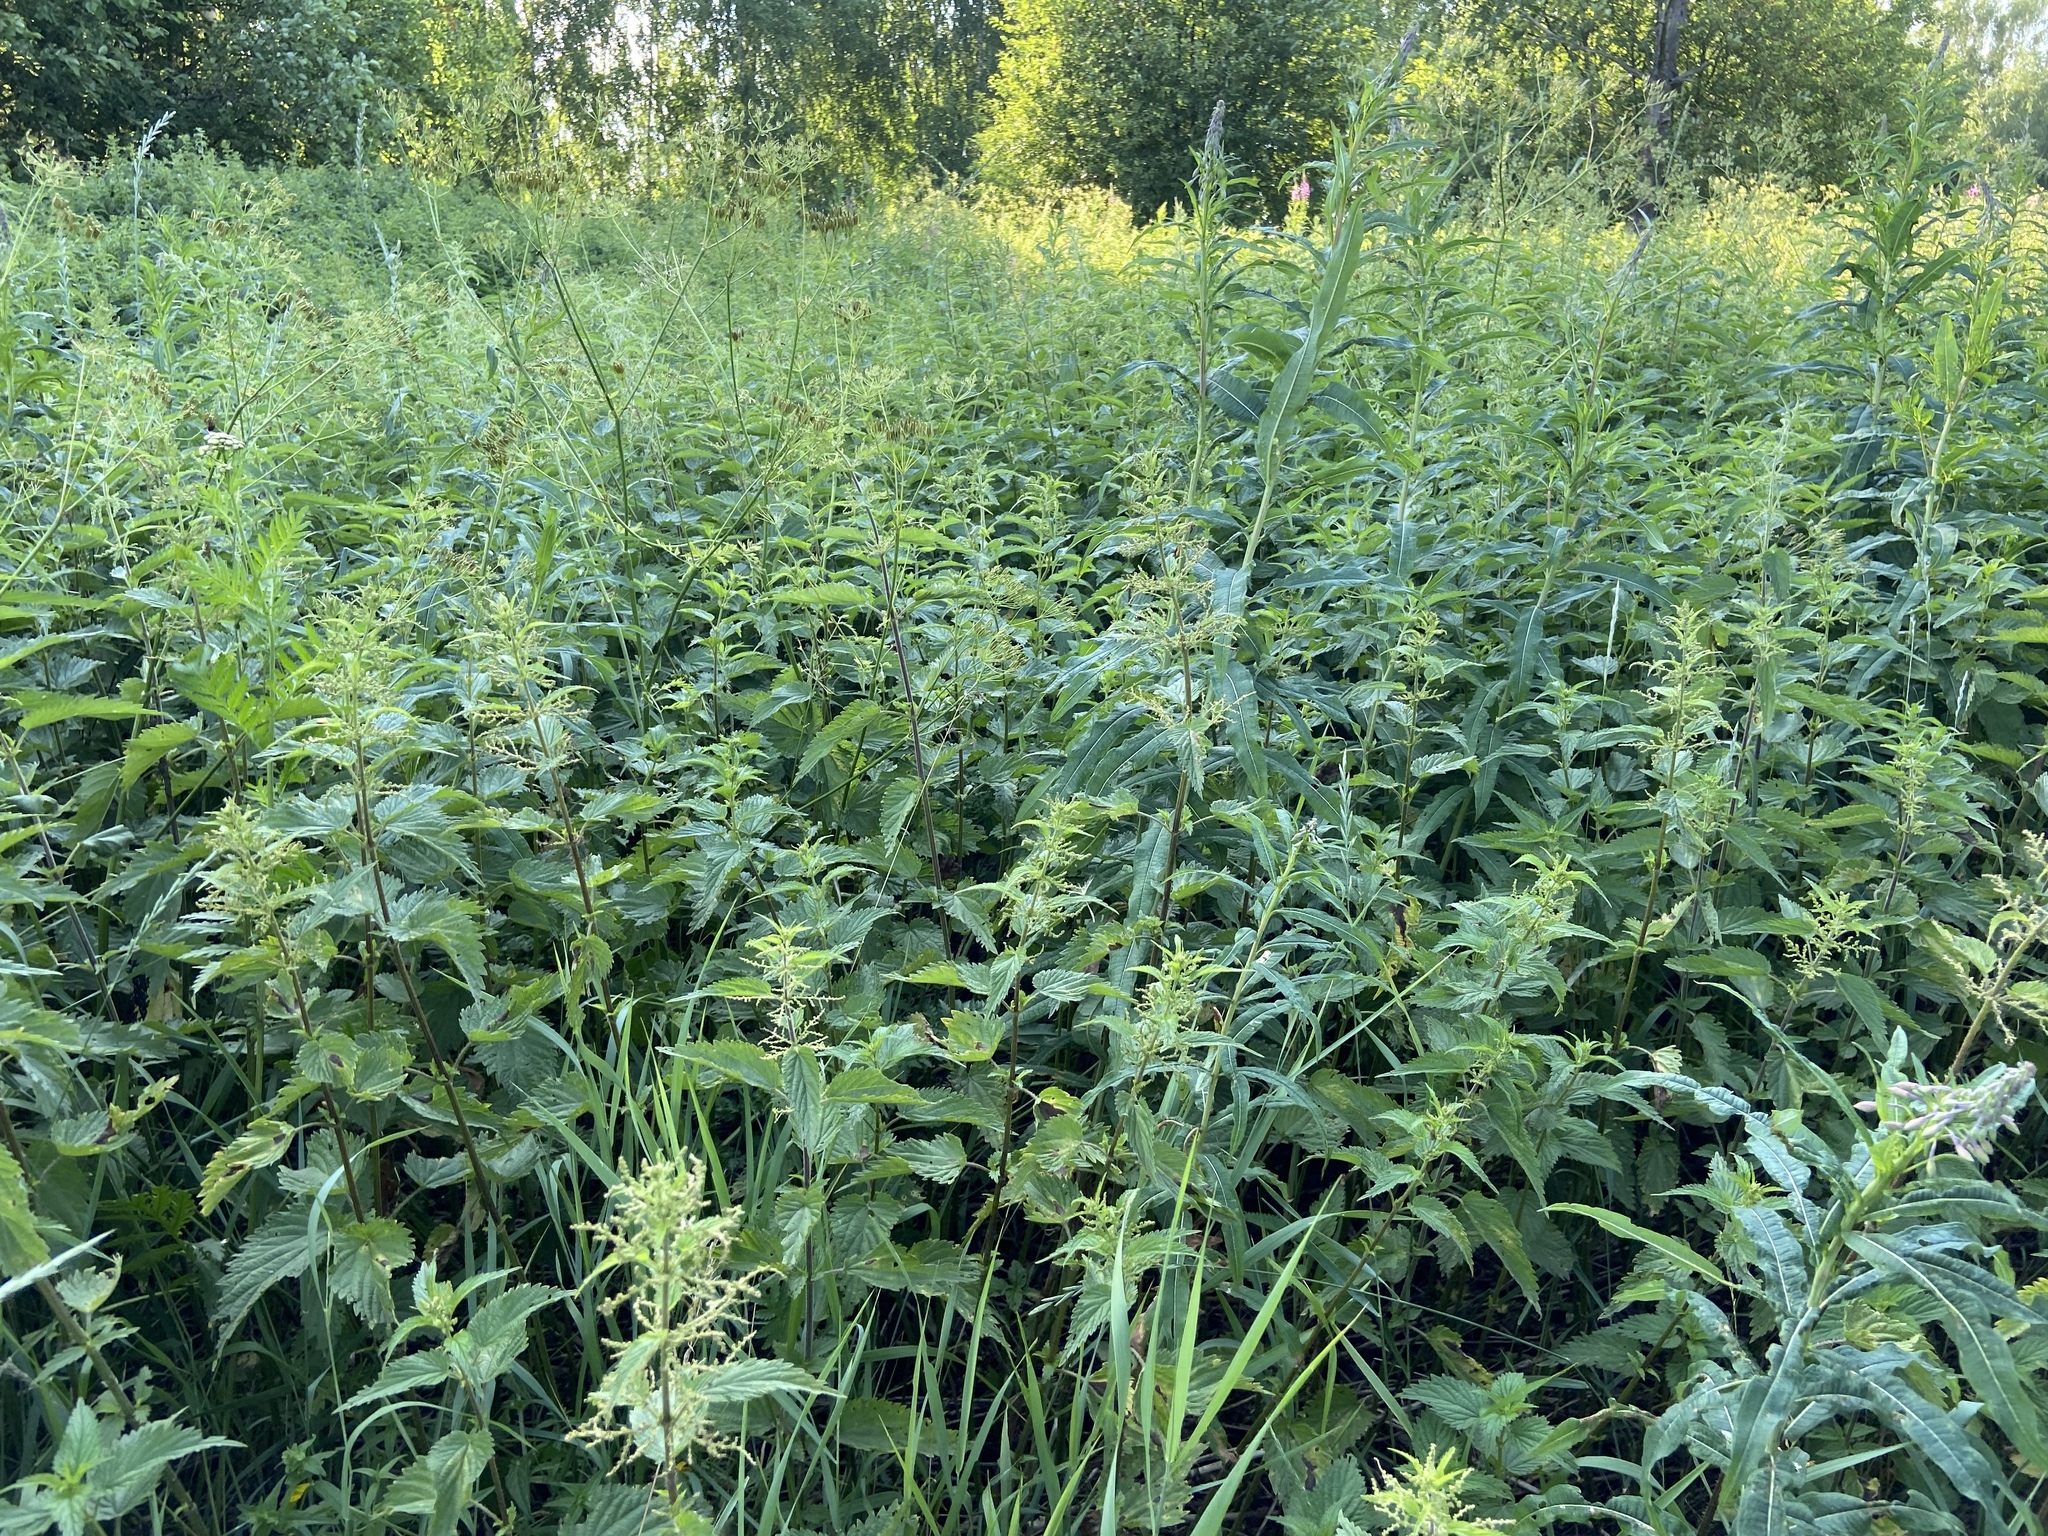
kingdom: Plantae
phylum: Tracheophyta
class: Magnoliopsida
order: Rosales
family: Urticaceae
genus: Urtica
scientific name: Urtica dioica
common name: Common nettle
